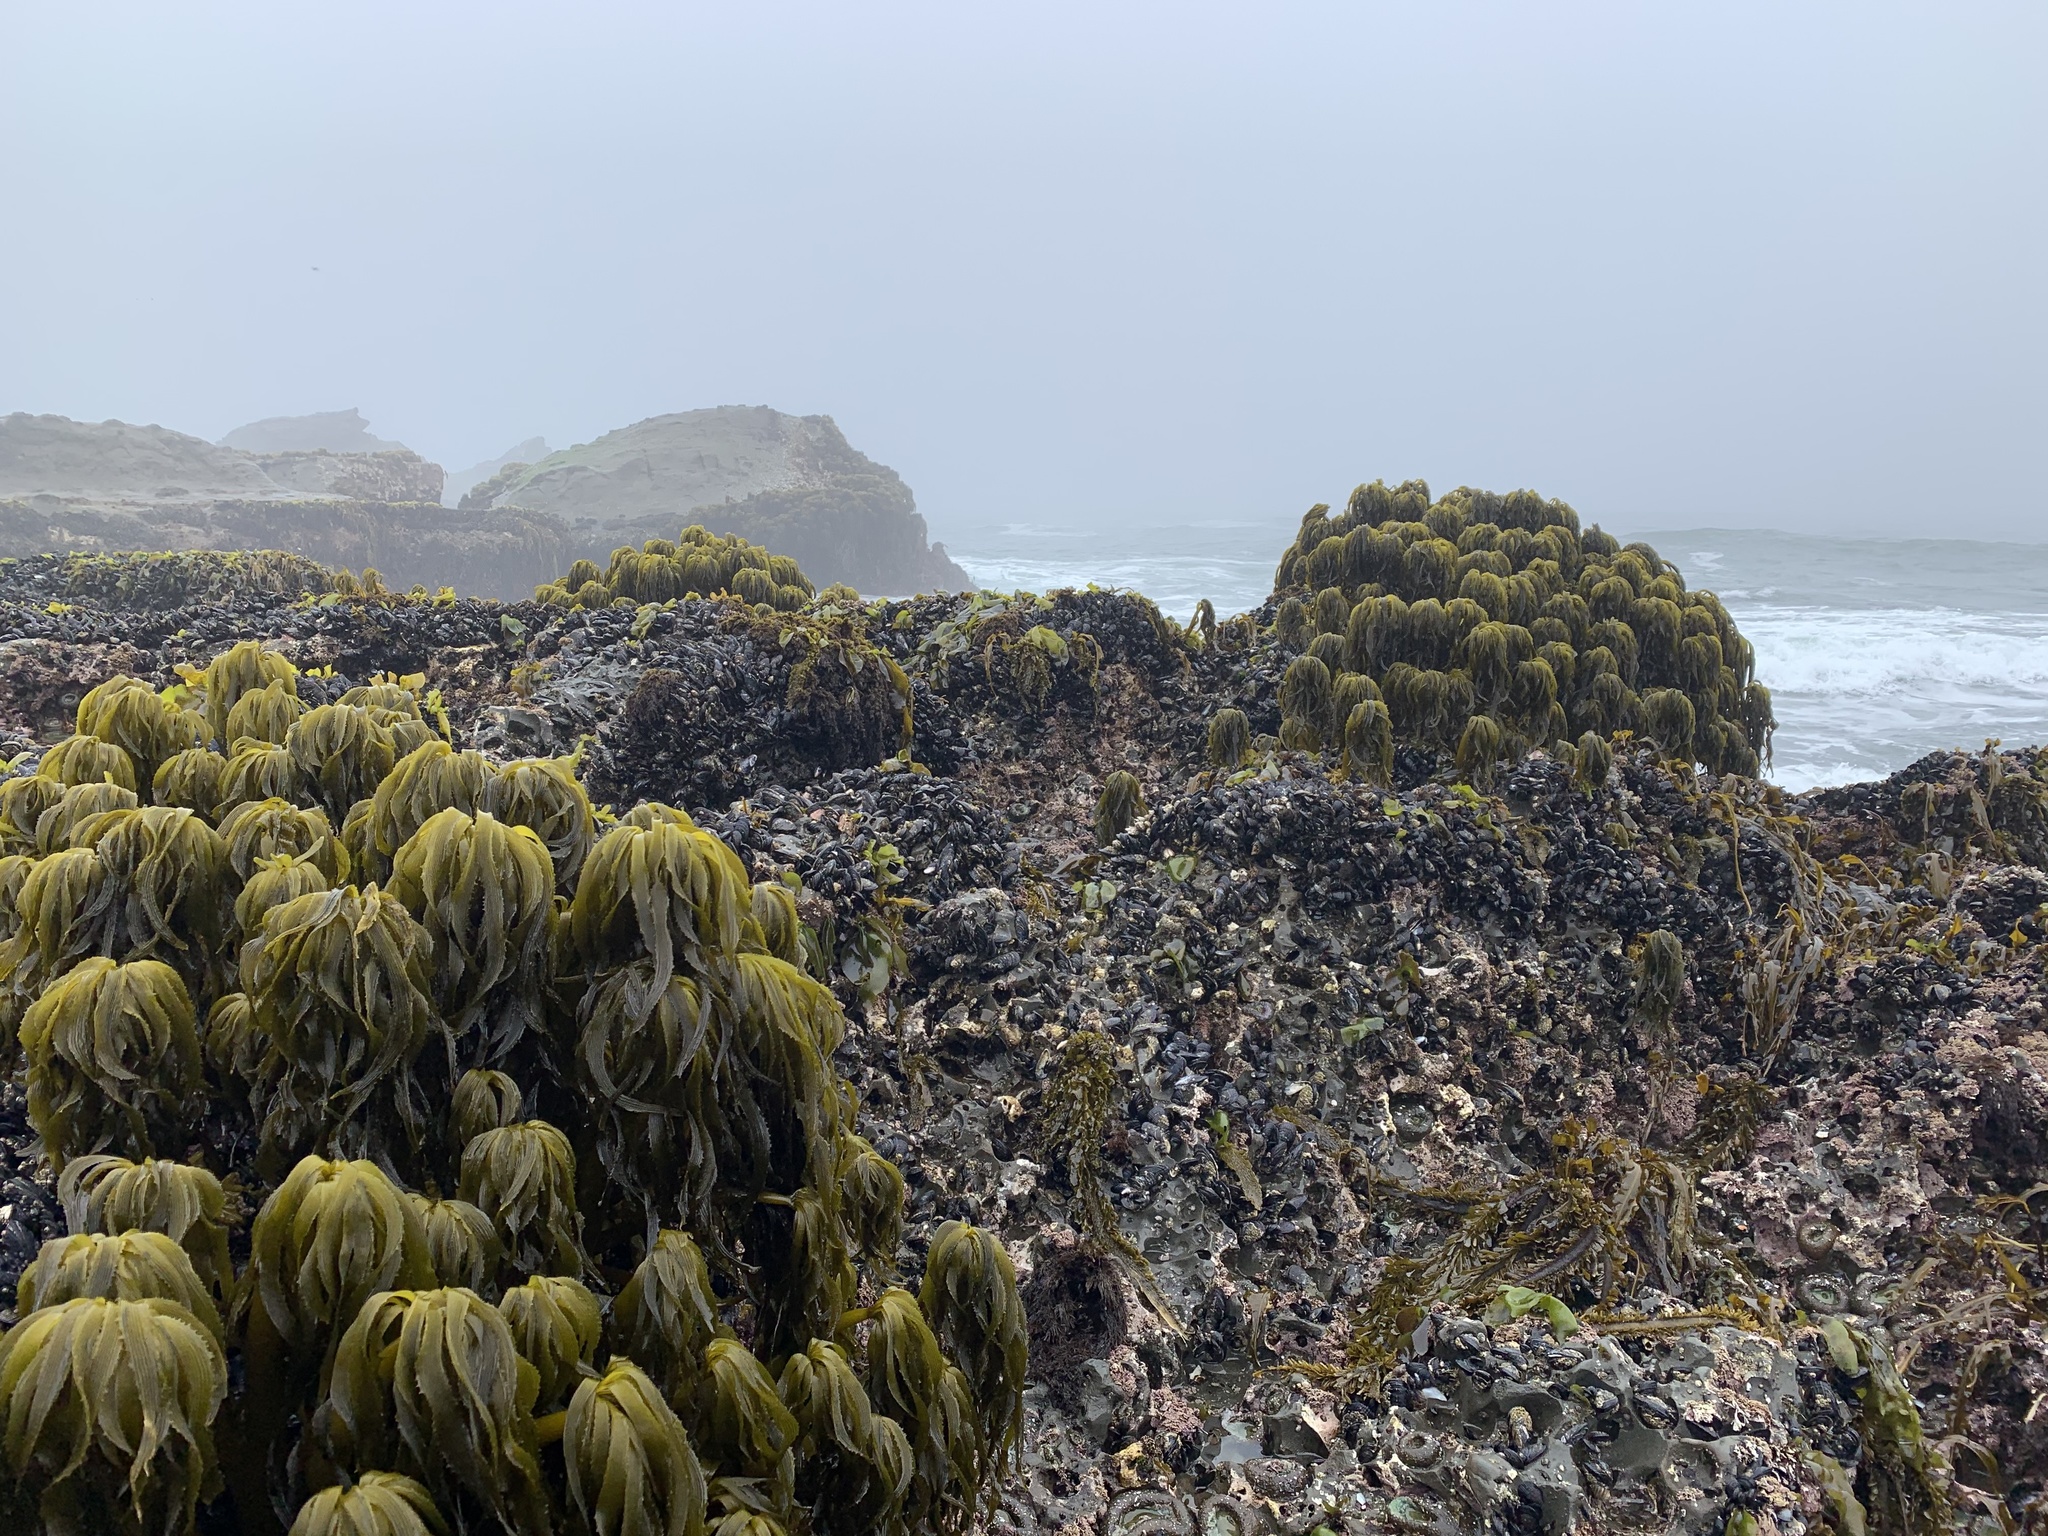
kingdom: Chromista
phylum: Ochrophyta
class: Phaeophyceae
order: Laminariales
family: Laminariaceae
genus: Postelsia
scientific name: Postelsia palmiformis
